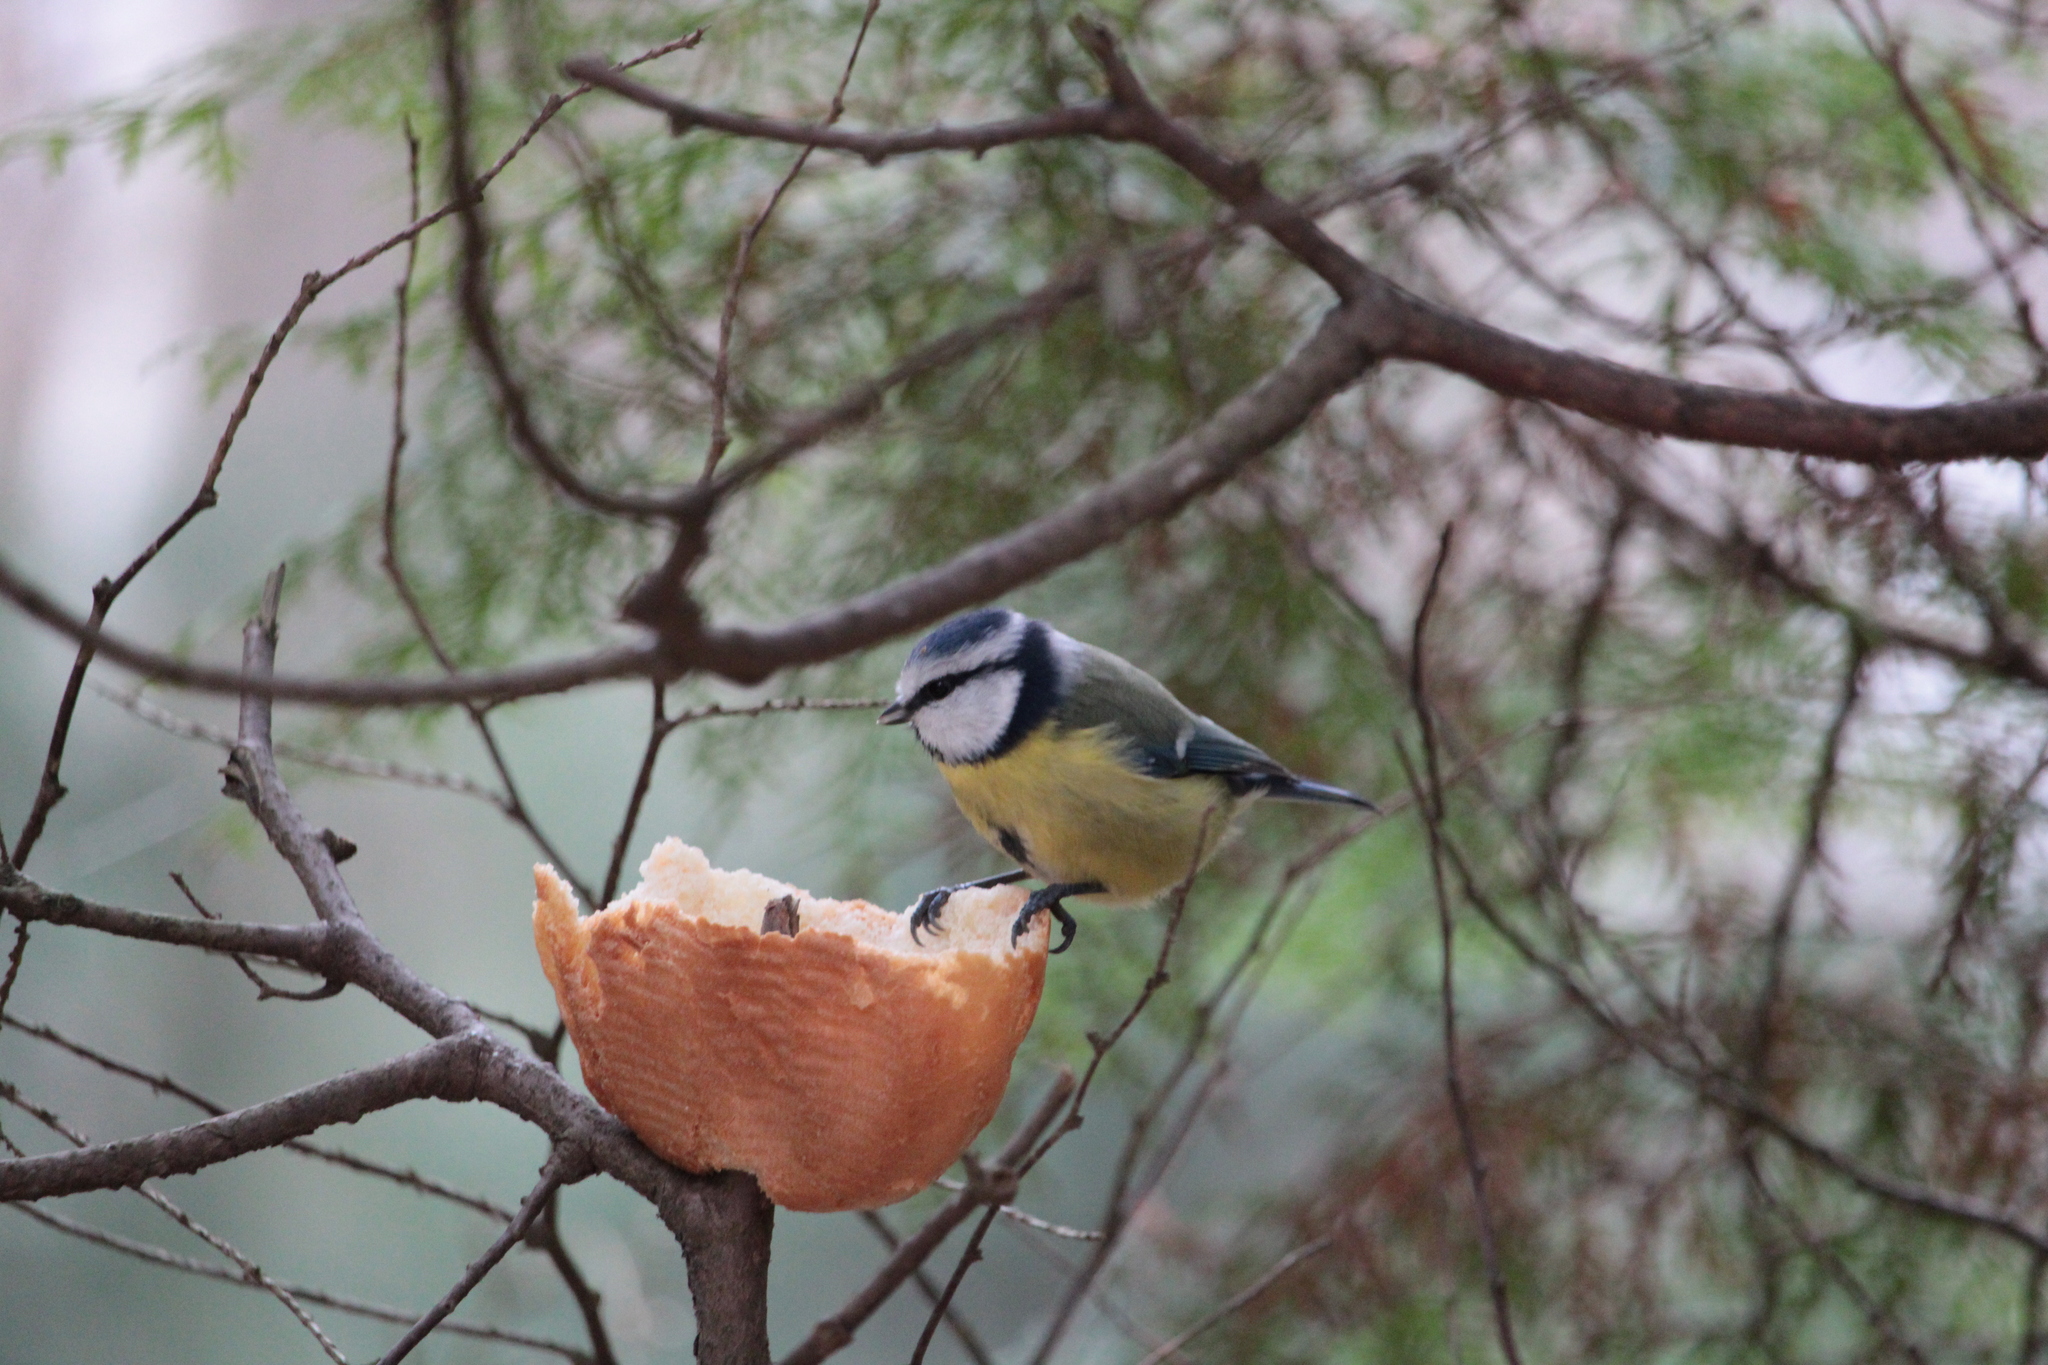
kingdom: Animalia
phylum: Chordata
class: Aves
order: Passeriformes
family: Paridae
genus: Cyanistes
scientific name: Cyanistes caeruleus
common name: Eurasian blue tit
